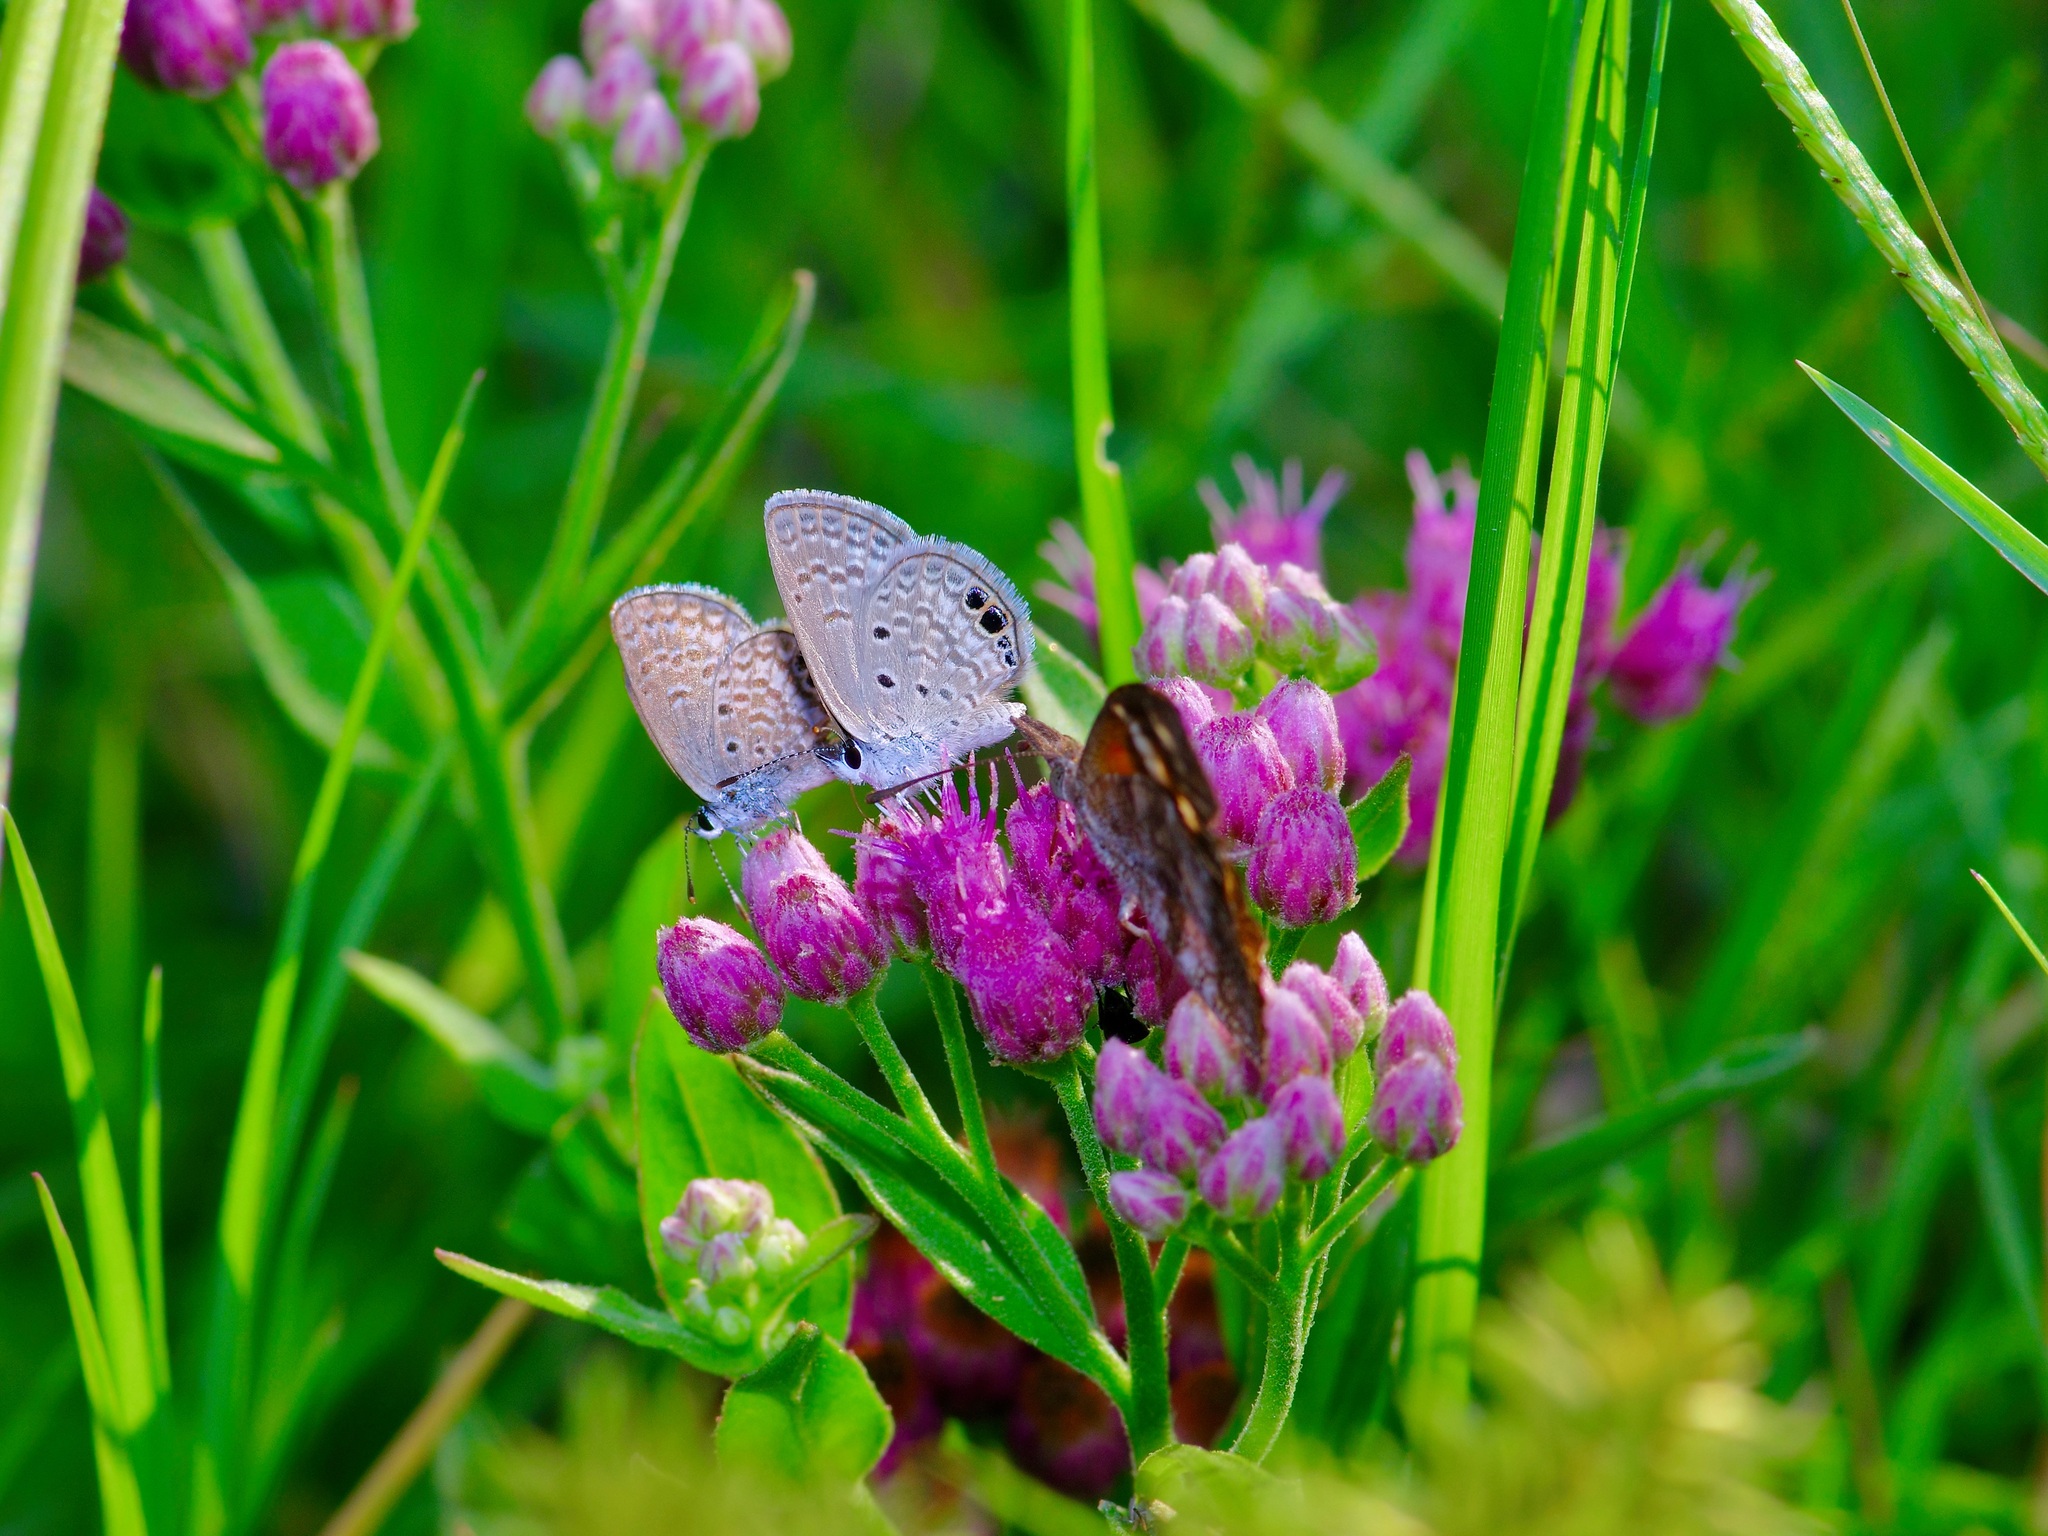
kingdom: Animalia
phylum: Arthropoda
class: Insecta
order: Lepidoptera
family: Lycaenidae
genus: Hemiargus
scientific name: Hemiargus ceraunus
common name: Ceraunus blue
